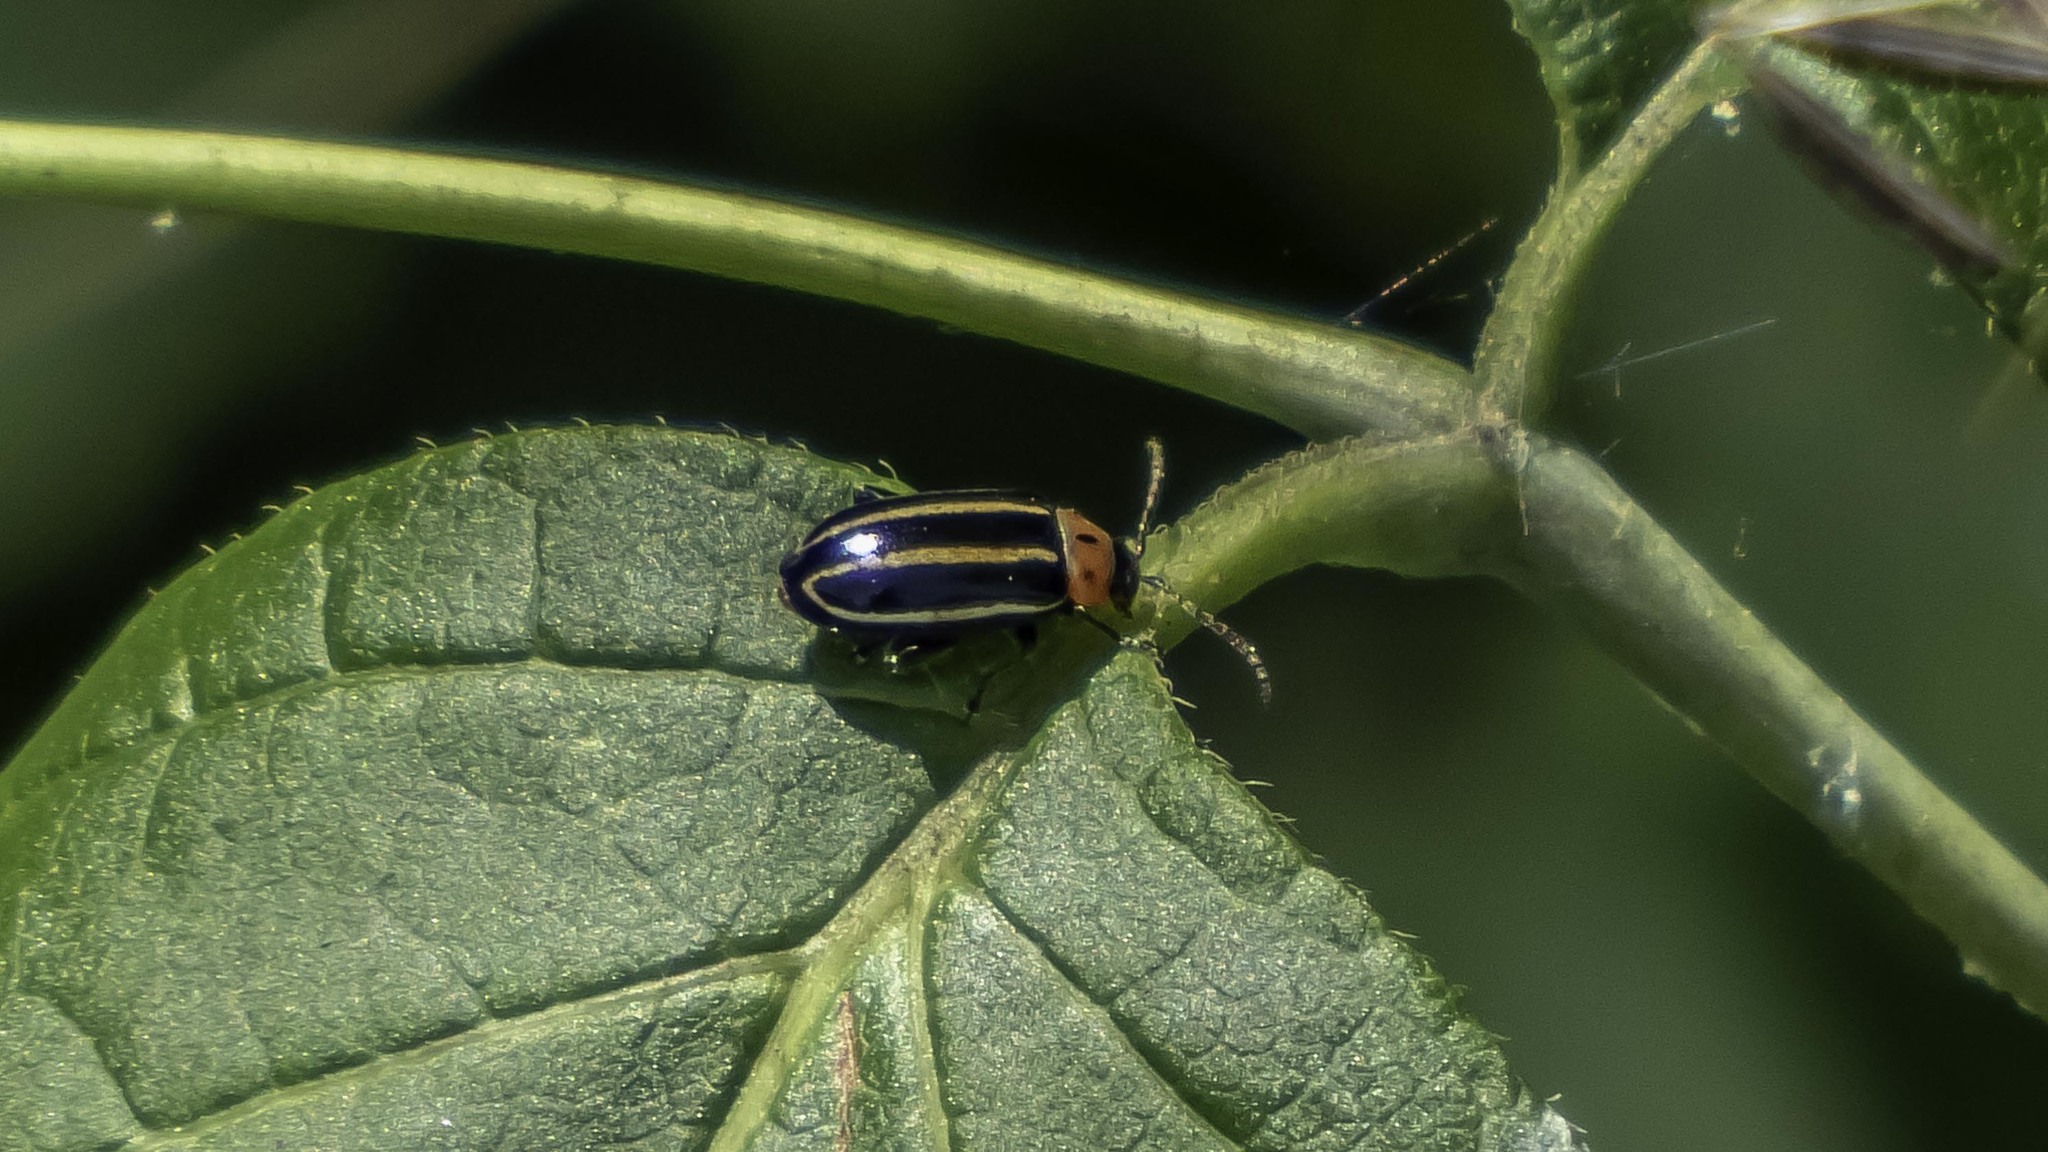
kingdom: Animalia
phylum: Arthropoda
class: Insecta
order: Coleoptera
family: Chrysomelidae
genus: Disonycha
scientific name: Disonycha glabrata
